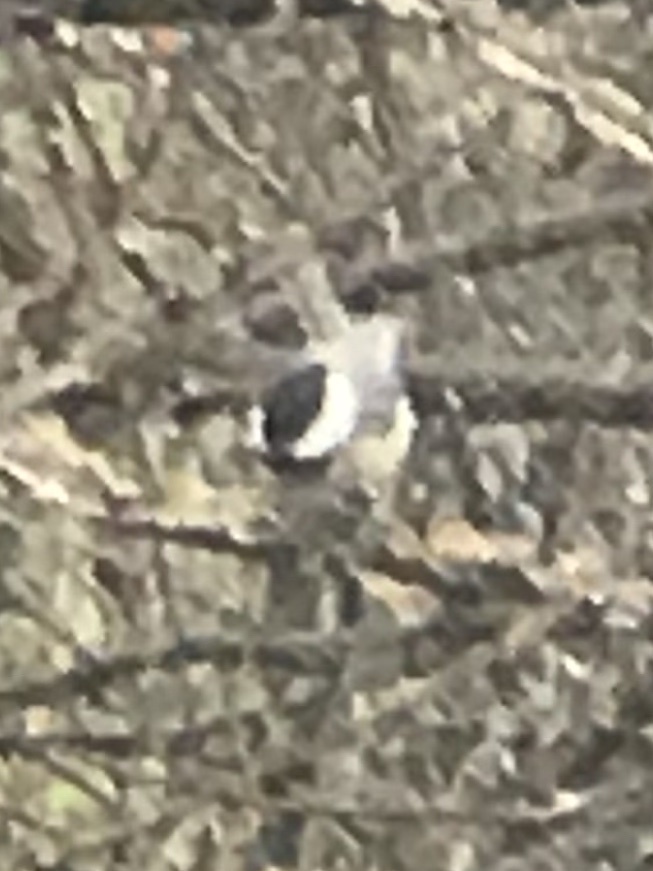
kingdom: Animalia
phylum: Chordata
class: Aves
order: Passeriformes
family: Paridae
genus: Poecile
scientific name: Poecile carolinensis
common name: Carolina chickadee
